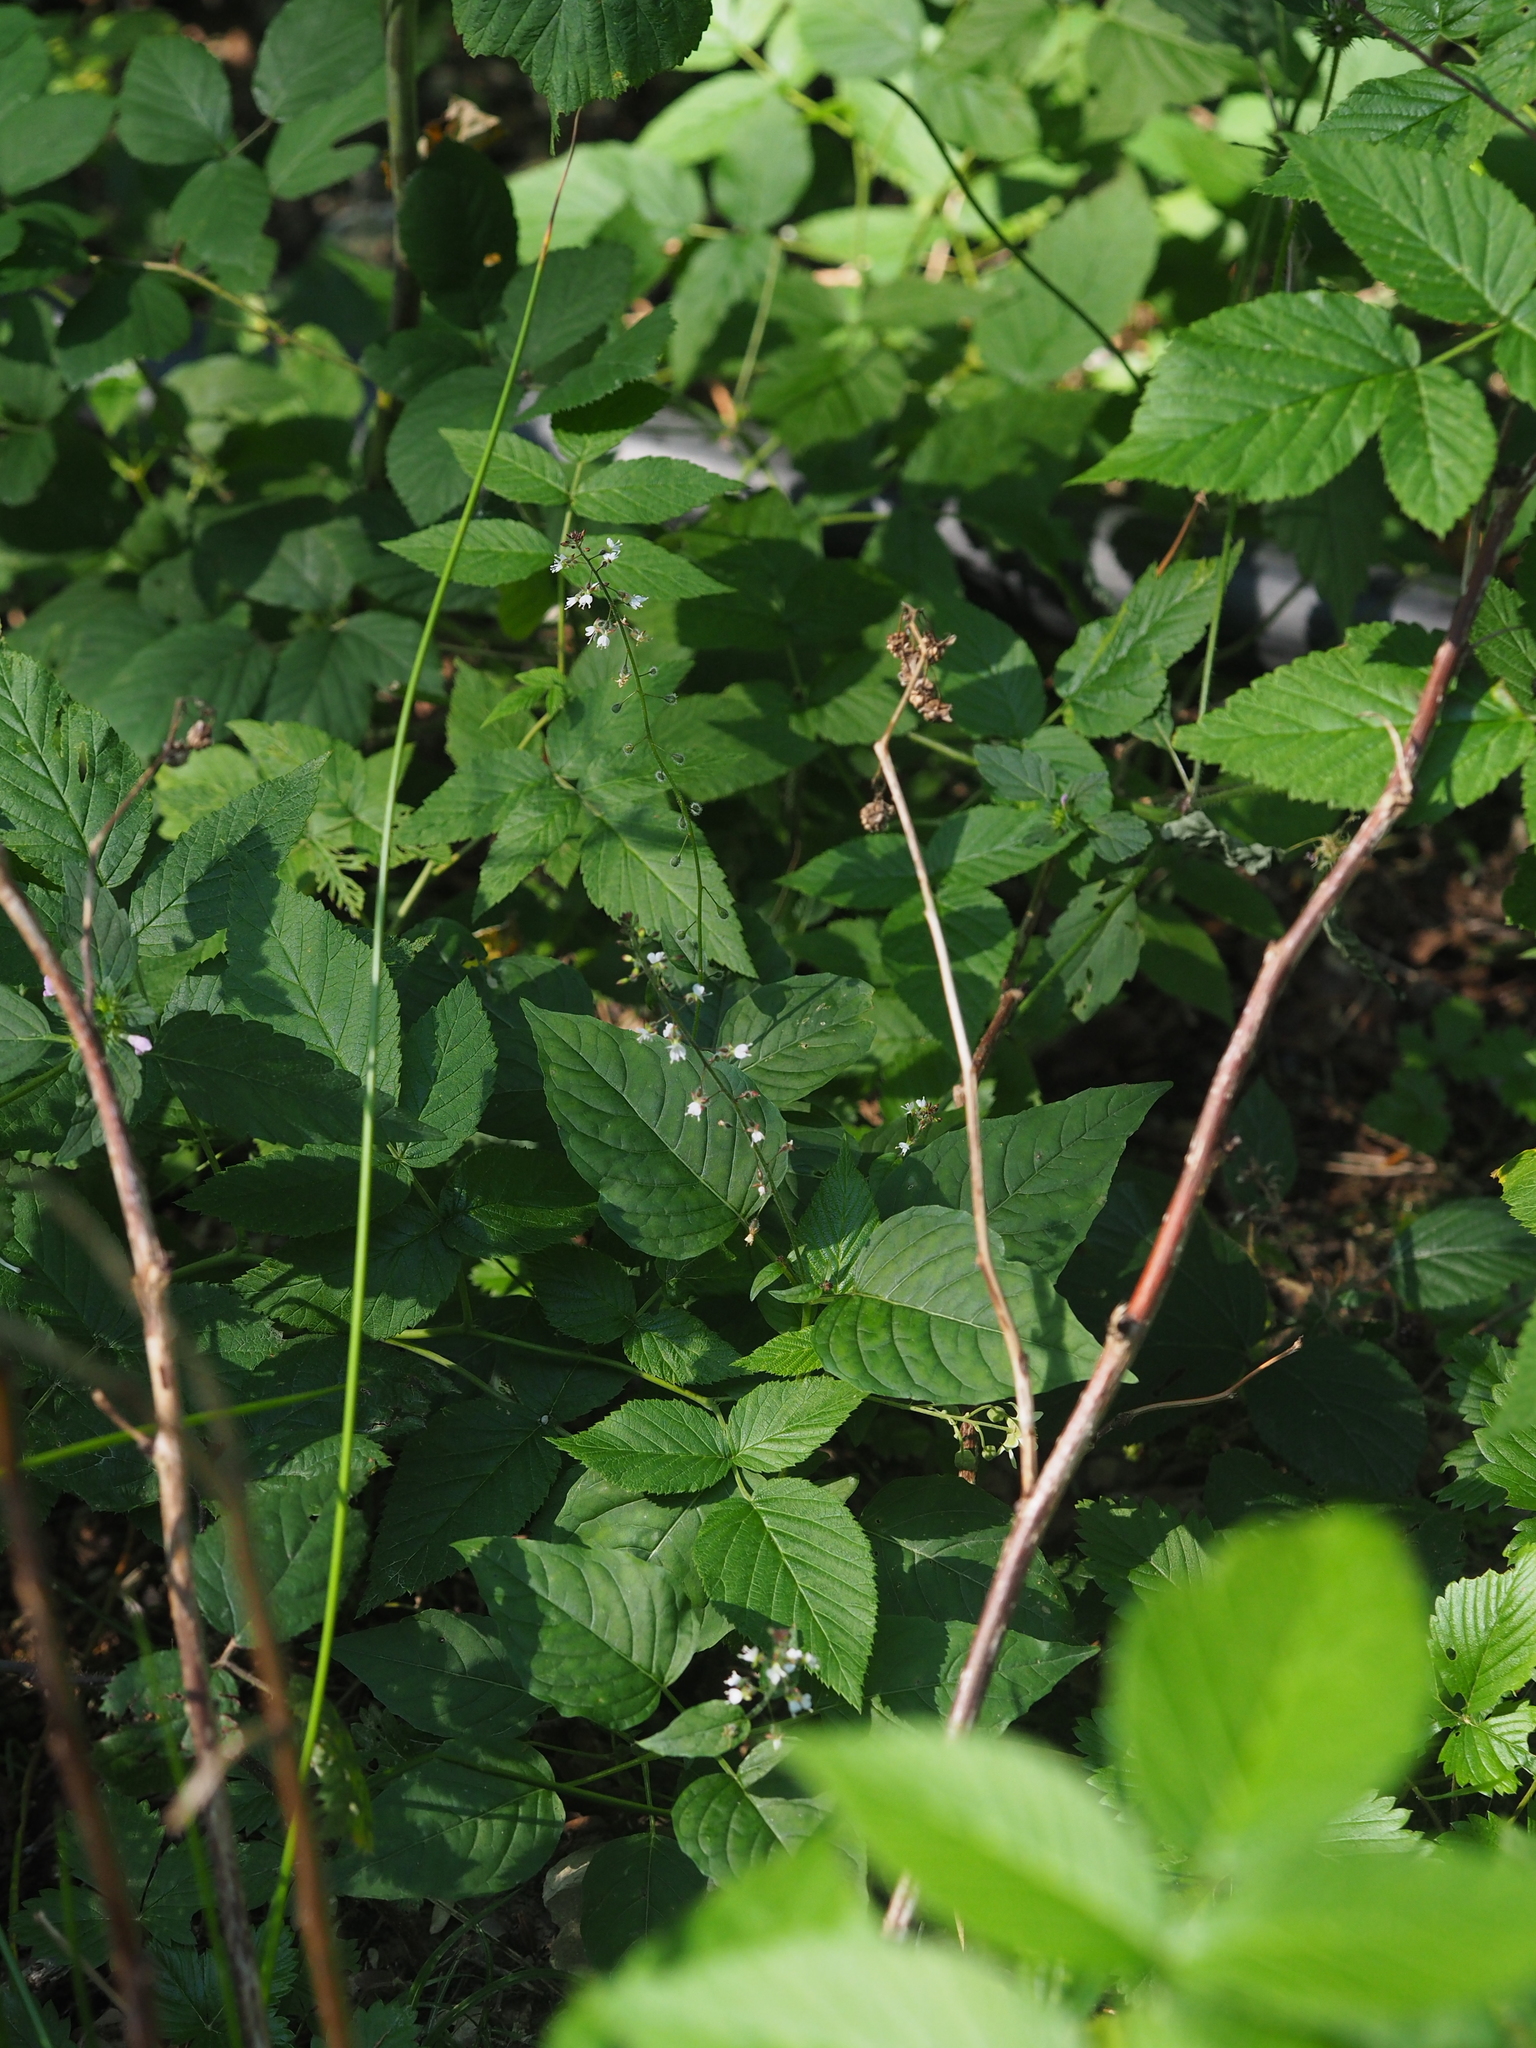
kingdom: Plantae
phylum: Tracheophyta
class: Magnoliopsida
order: Myrtales
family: Onagraceae
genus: Circaea
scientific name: Circaea lutetiana
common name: Enchanter's-nightshade
